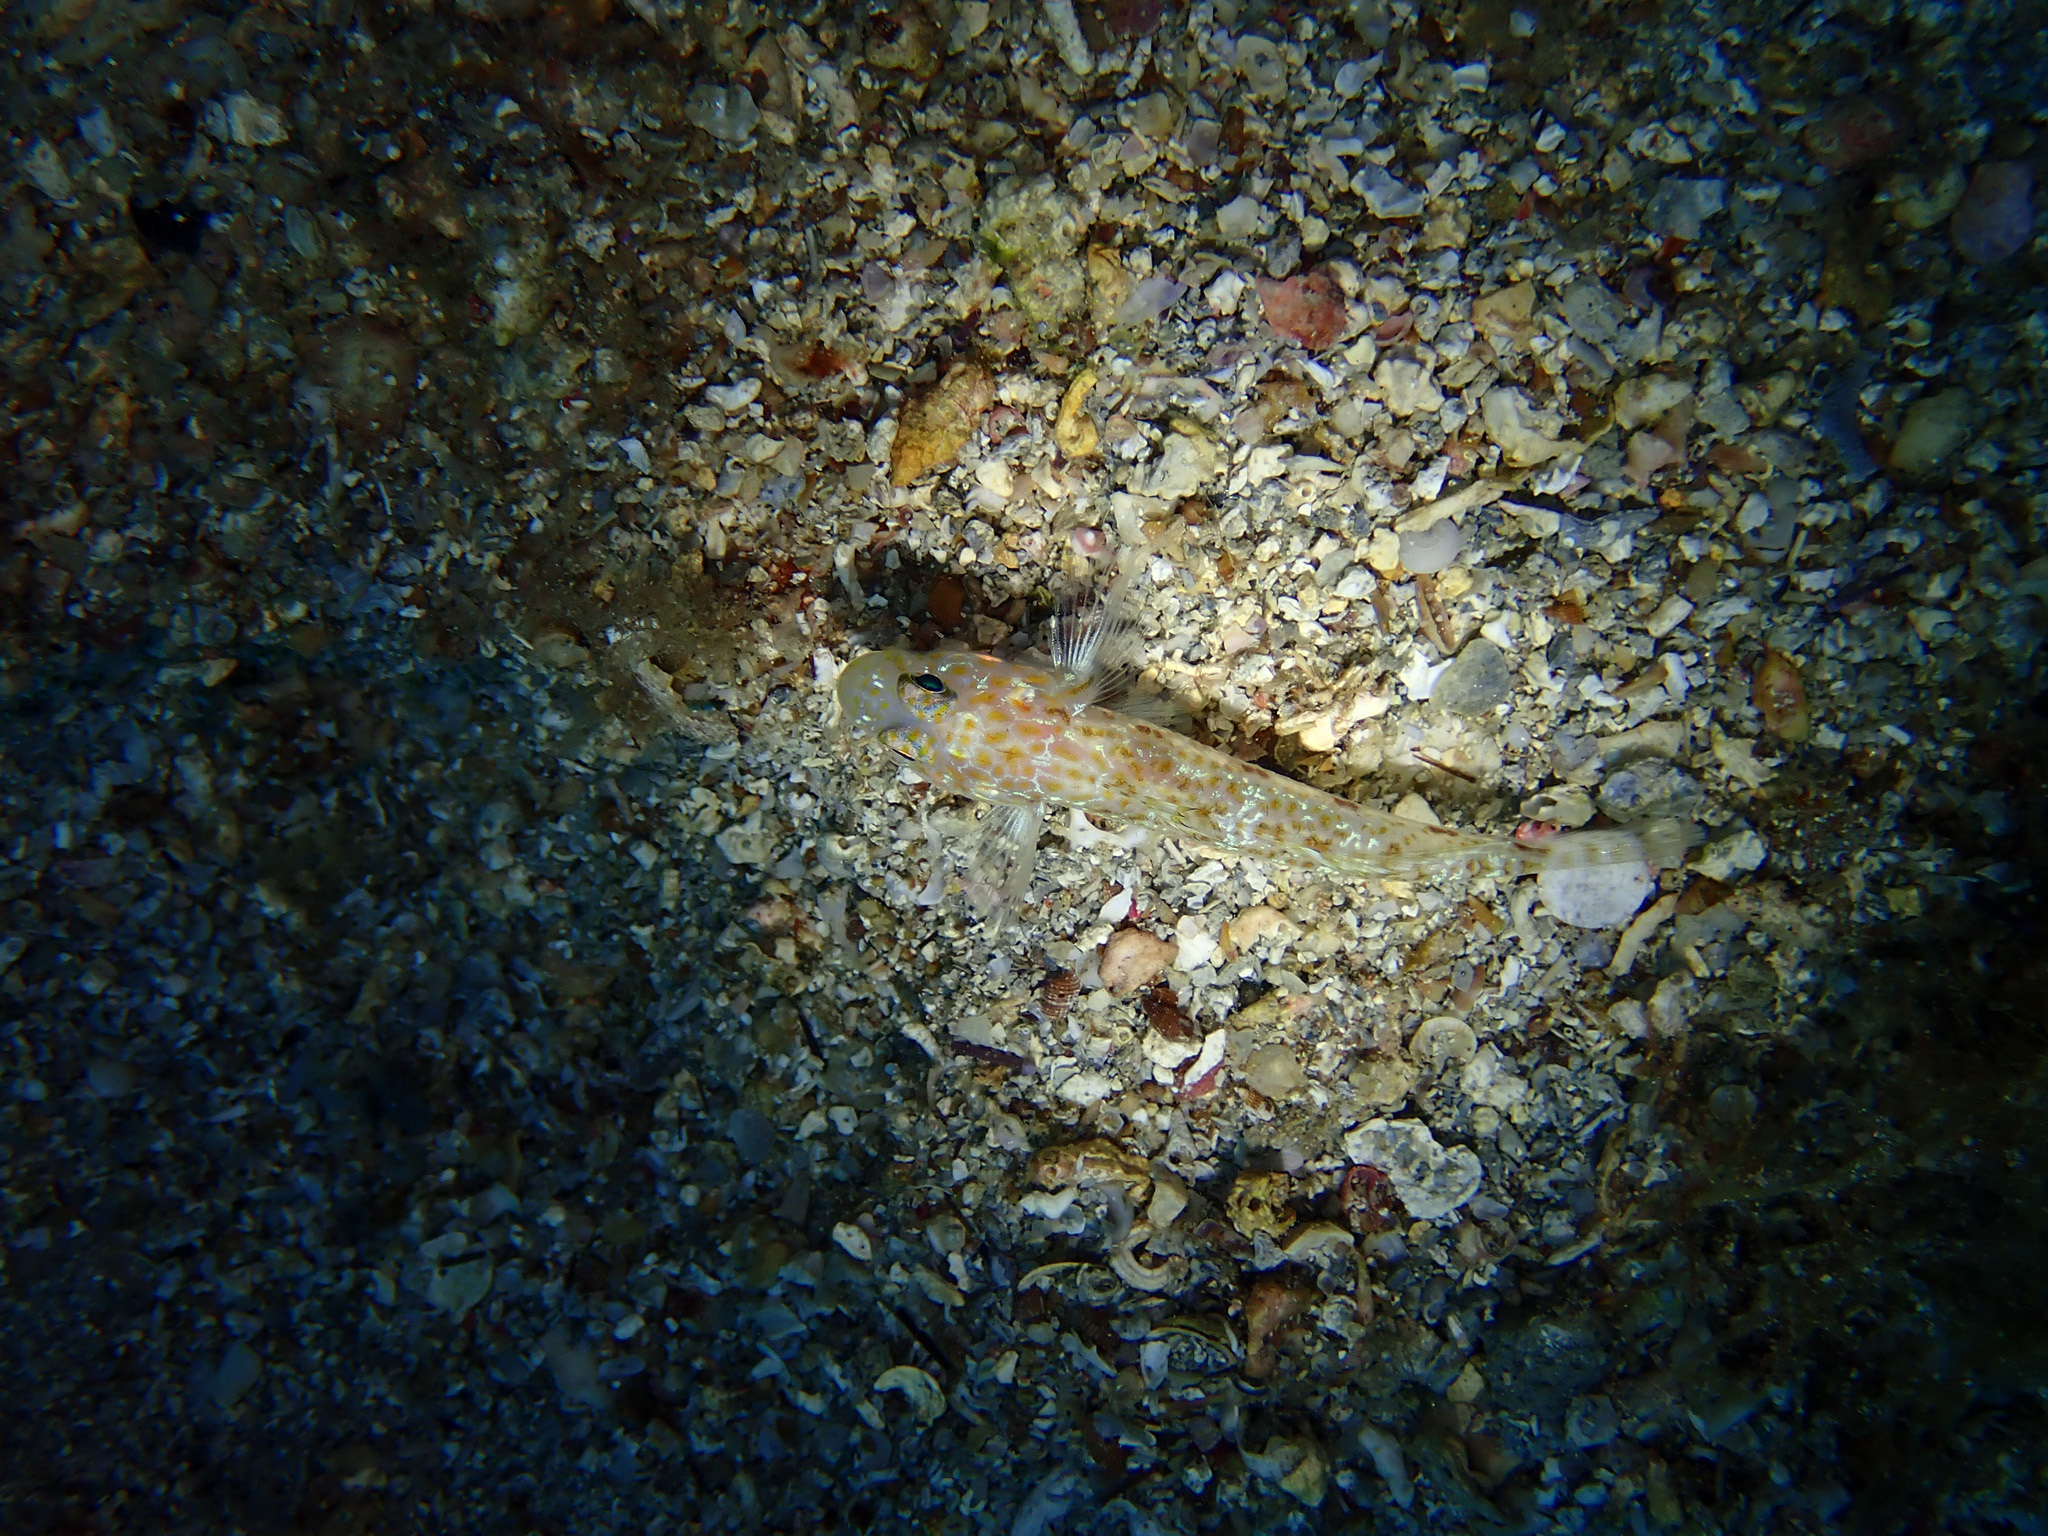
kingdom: Animalia
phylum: Chordata
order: Perciformes
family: Gobiidae
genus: Thorogobius
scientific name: Thorogobius macrolepis
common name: Large-scaled goby
